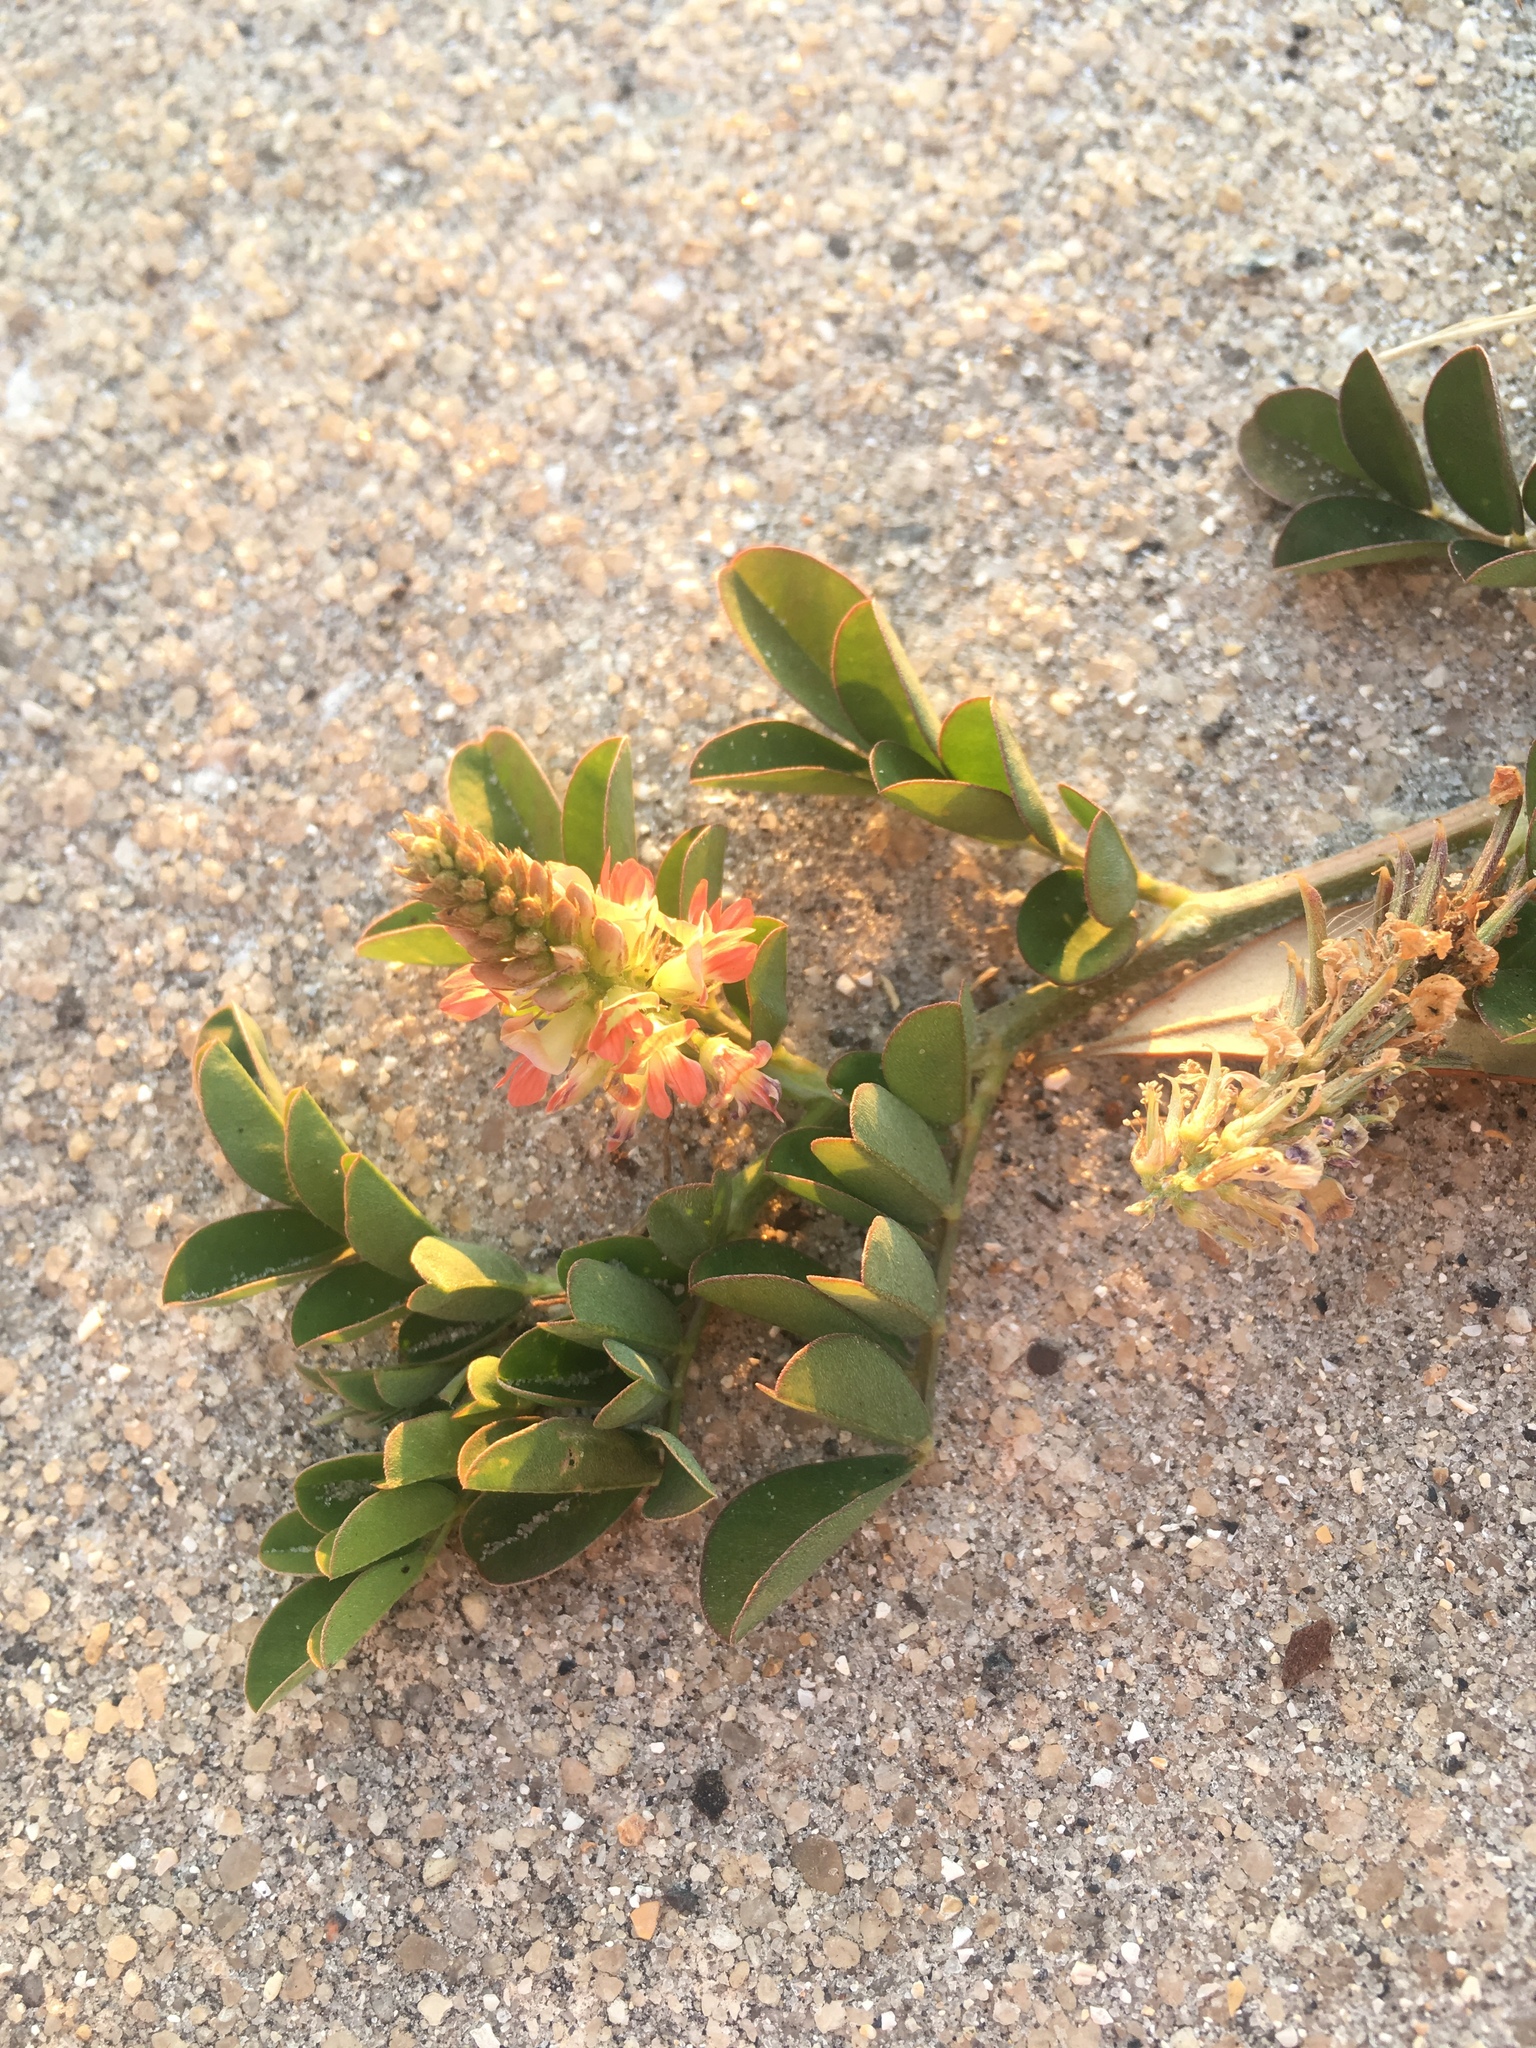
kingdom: Plantae
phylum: Tracheophyta
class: Magnoliopsida
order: Fabales
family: Fabaceae
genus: Indigofera
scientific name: Indigofera spicata
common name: Creeping indigo
